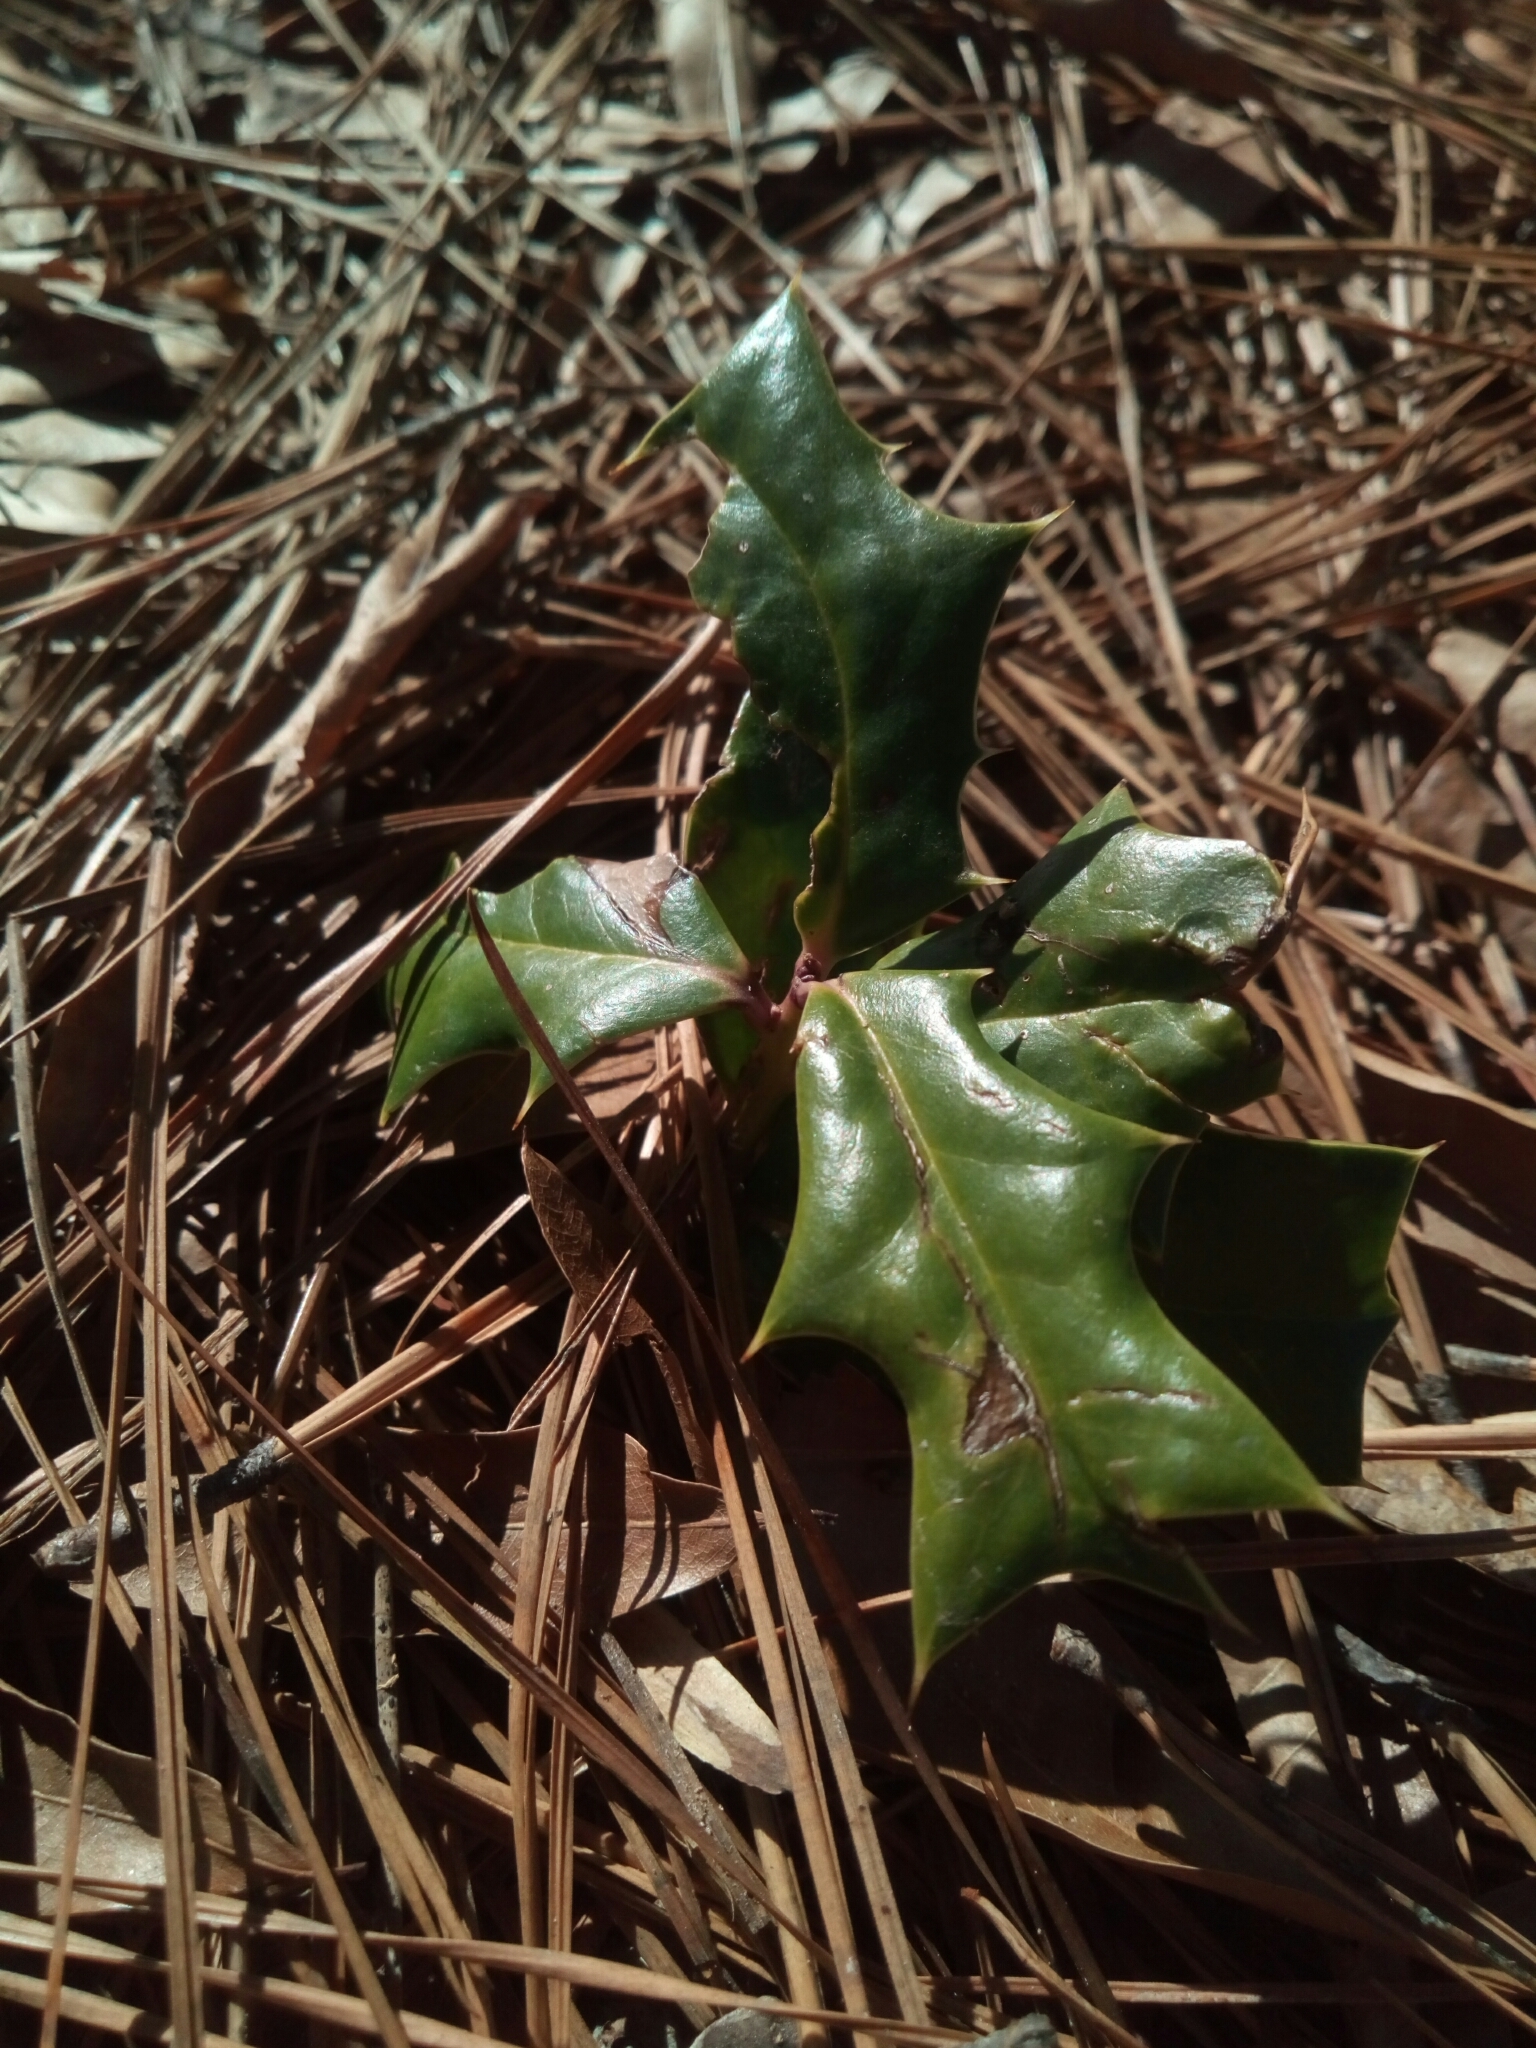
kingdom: Plantae
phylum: Tracheophyta
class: Magnoliopsida
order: Aquifoliales
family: Aquifoliaceae
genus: Ilex
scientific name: Ilex cornuta
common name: Chinese holly
